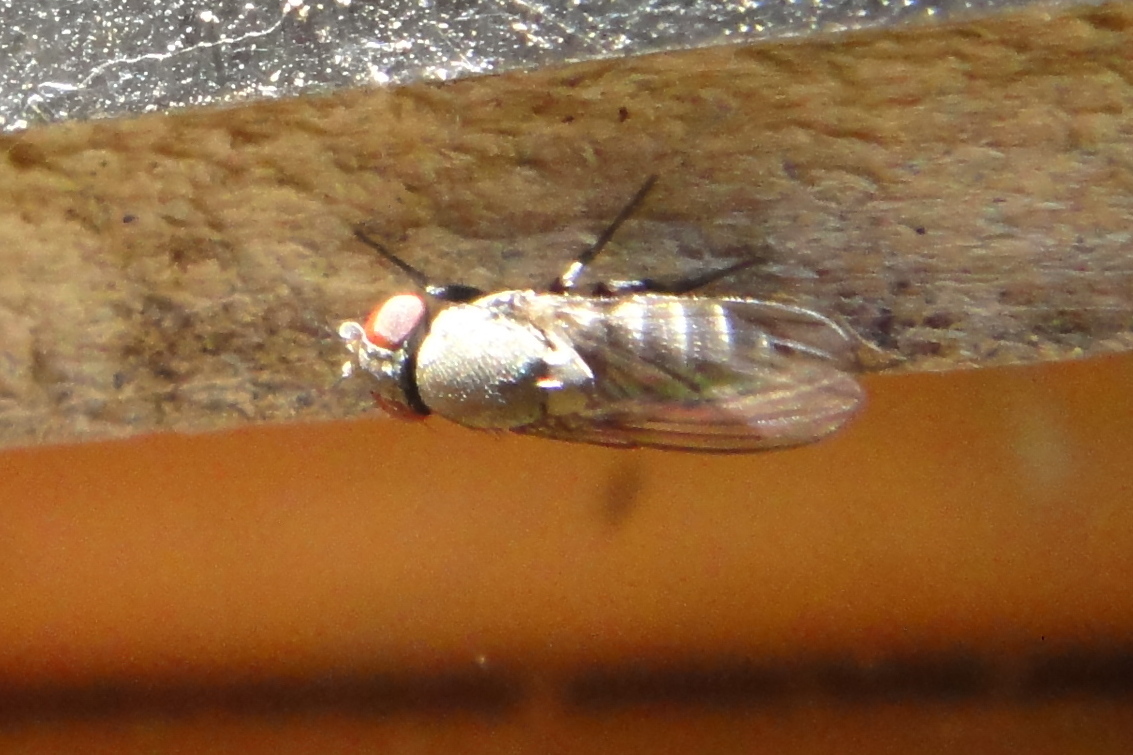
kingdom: Animalia
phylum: Arthropoda
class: Insecta
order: Diptera
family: Drosophilidae
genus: Cacoxenus
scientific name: Cacoxenus indagator
